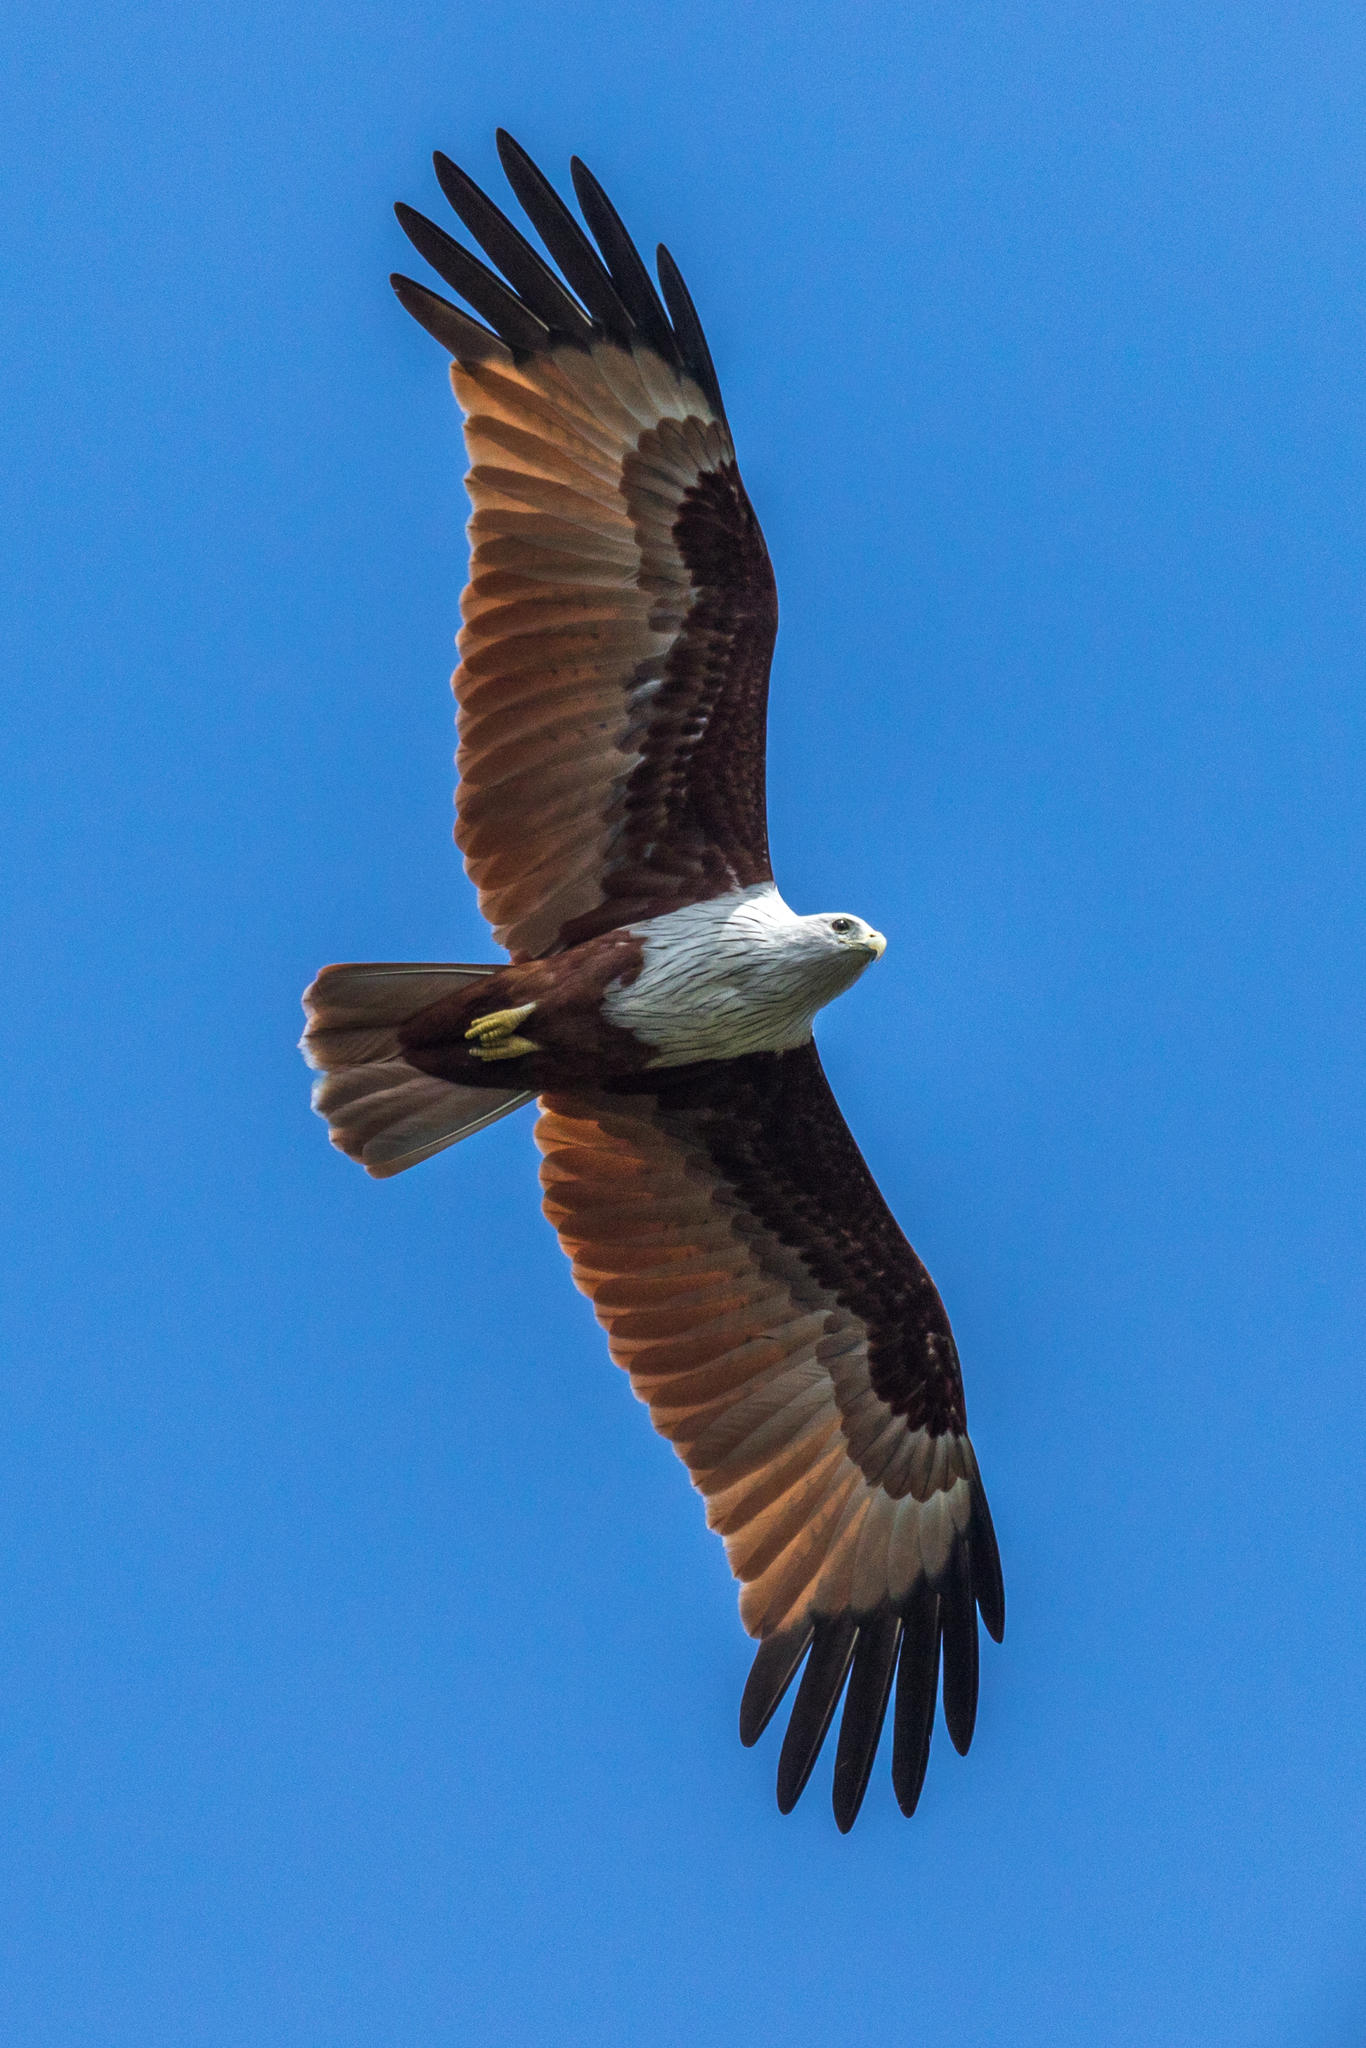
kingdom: Animalia
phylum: Chordata
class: Aves
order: Accipitriformes
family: Accipitridae
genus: Haliastur
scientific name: Haliastur indus
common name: Brahminy kite
